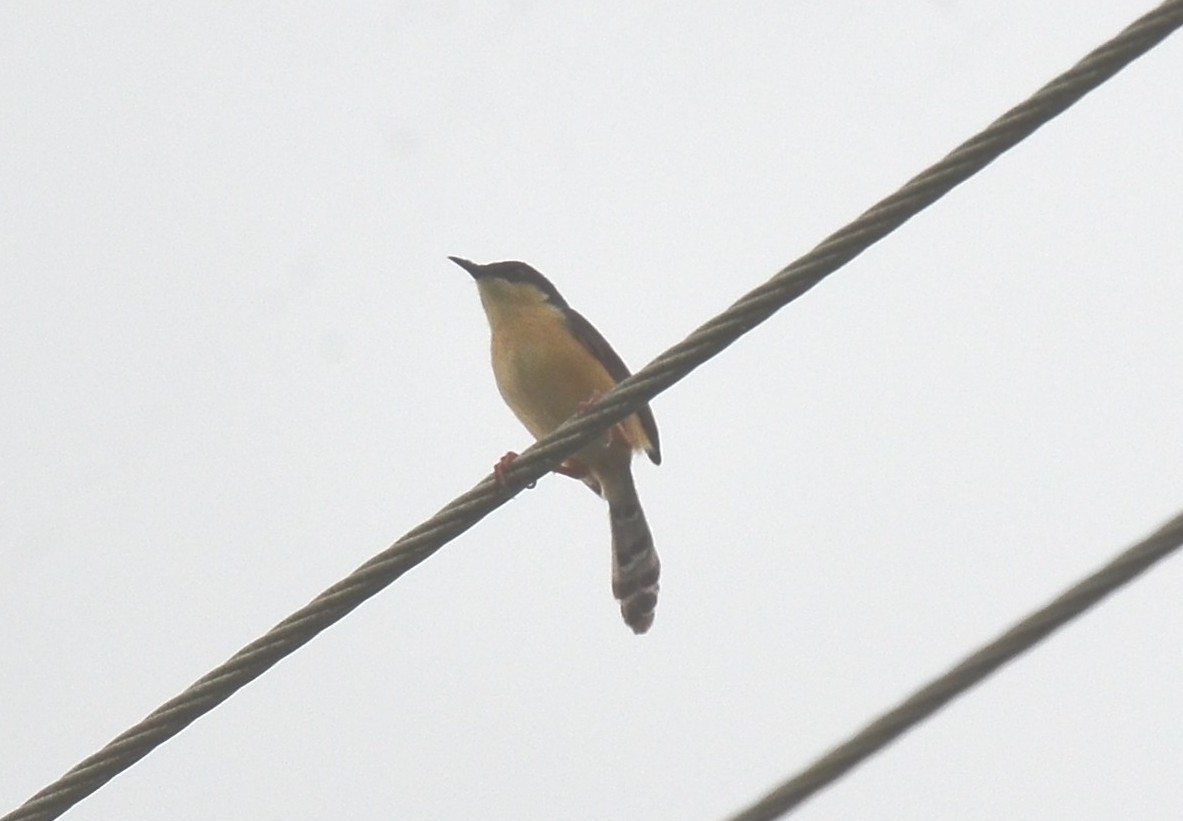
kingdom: Animalia
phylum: Chordata
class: Aves
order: Passeriformes
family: Cisticolidae
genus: Prinia
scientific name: Prinia socialis
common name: Ashy prinia
